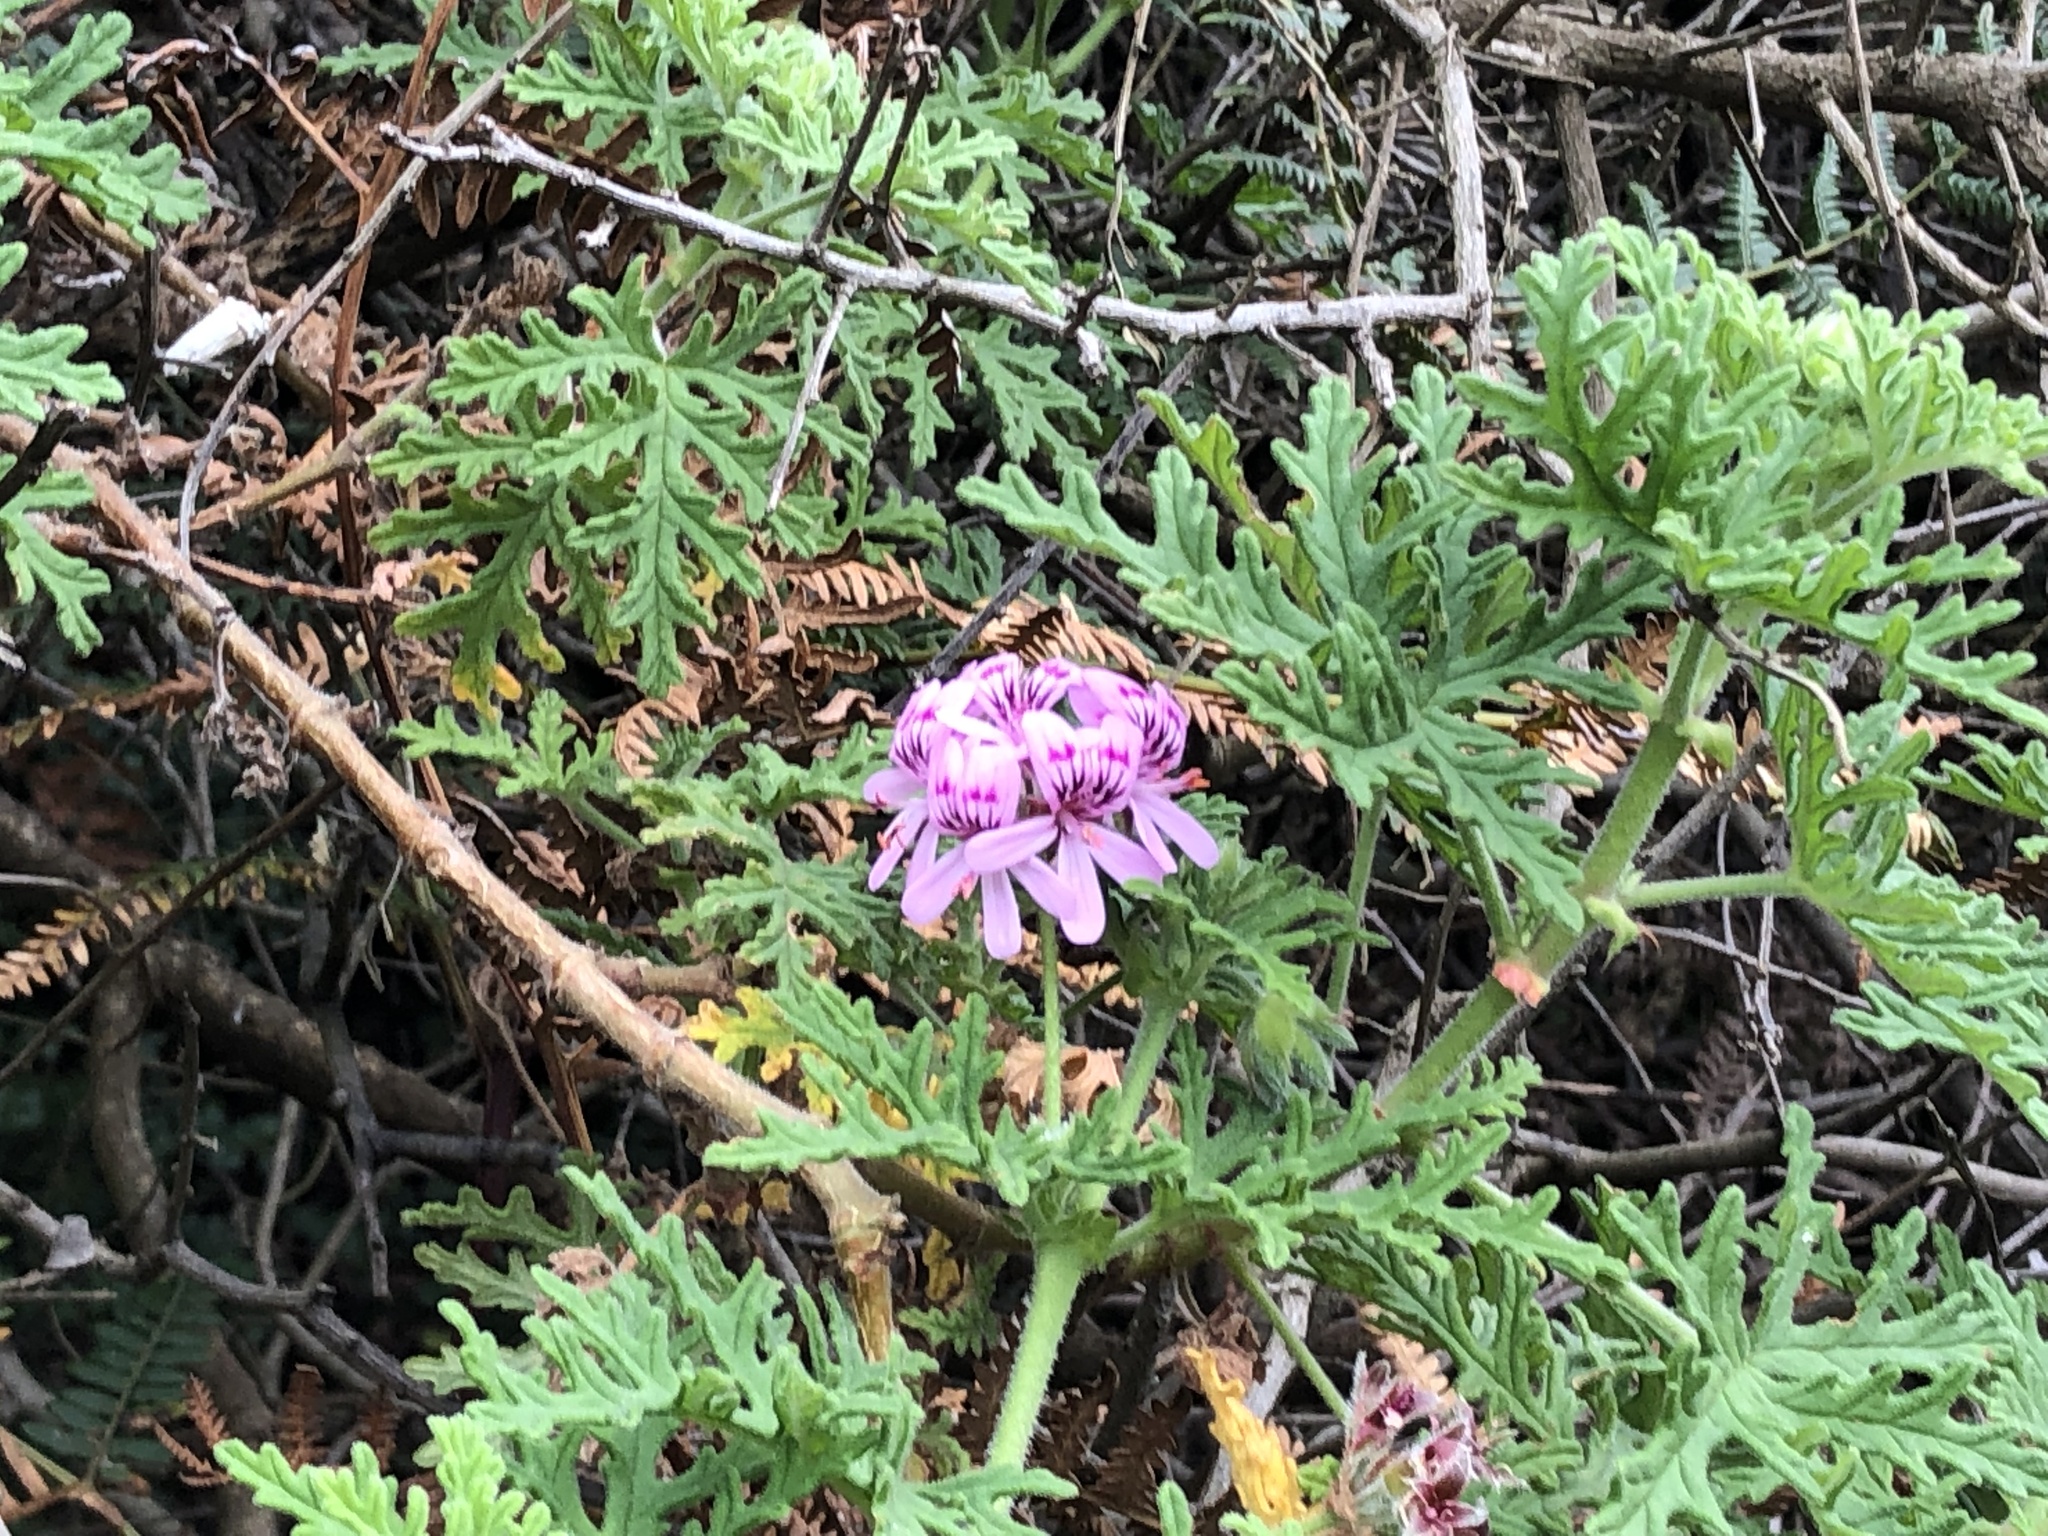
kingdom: Plantae
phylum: Tracheophyta
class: Magnoliopsida
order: Geraniales
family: Geraniaceae
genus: Pelargonium
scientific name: Pelargonium radens
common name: Rasp-leaf pelargonium
